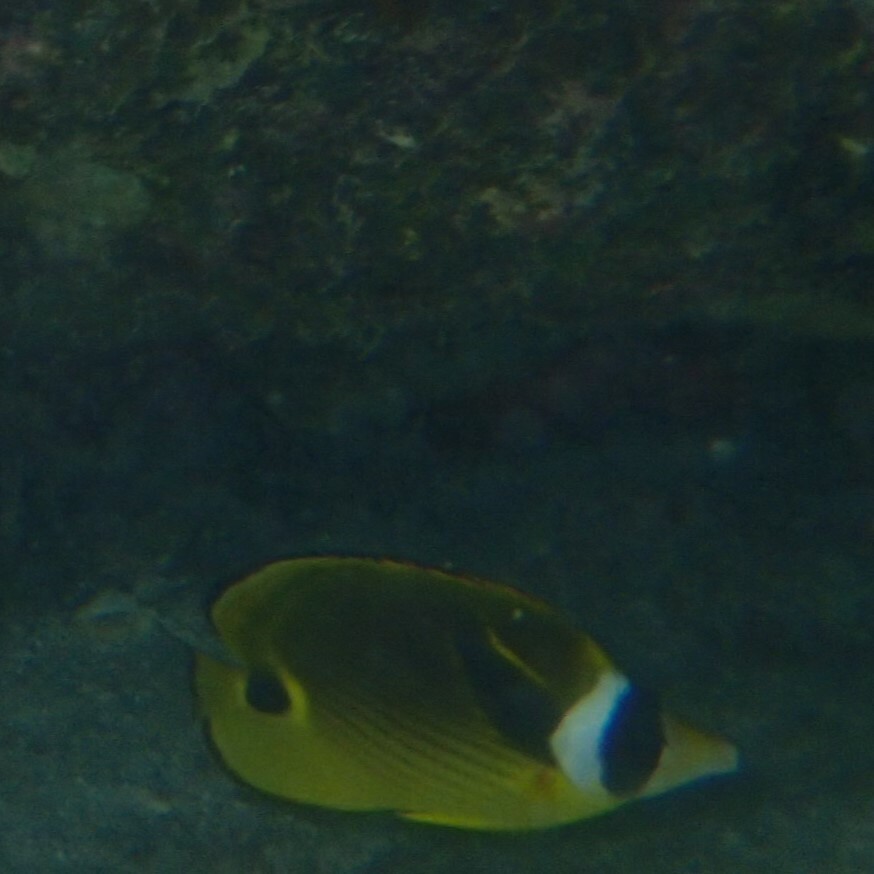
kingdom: Animalia
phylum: Chordata
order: Perciformes
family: Chaetodontidae
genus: Chaetodon
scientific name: Chaetodon lunula
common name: Raccoon butterflyfish
